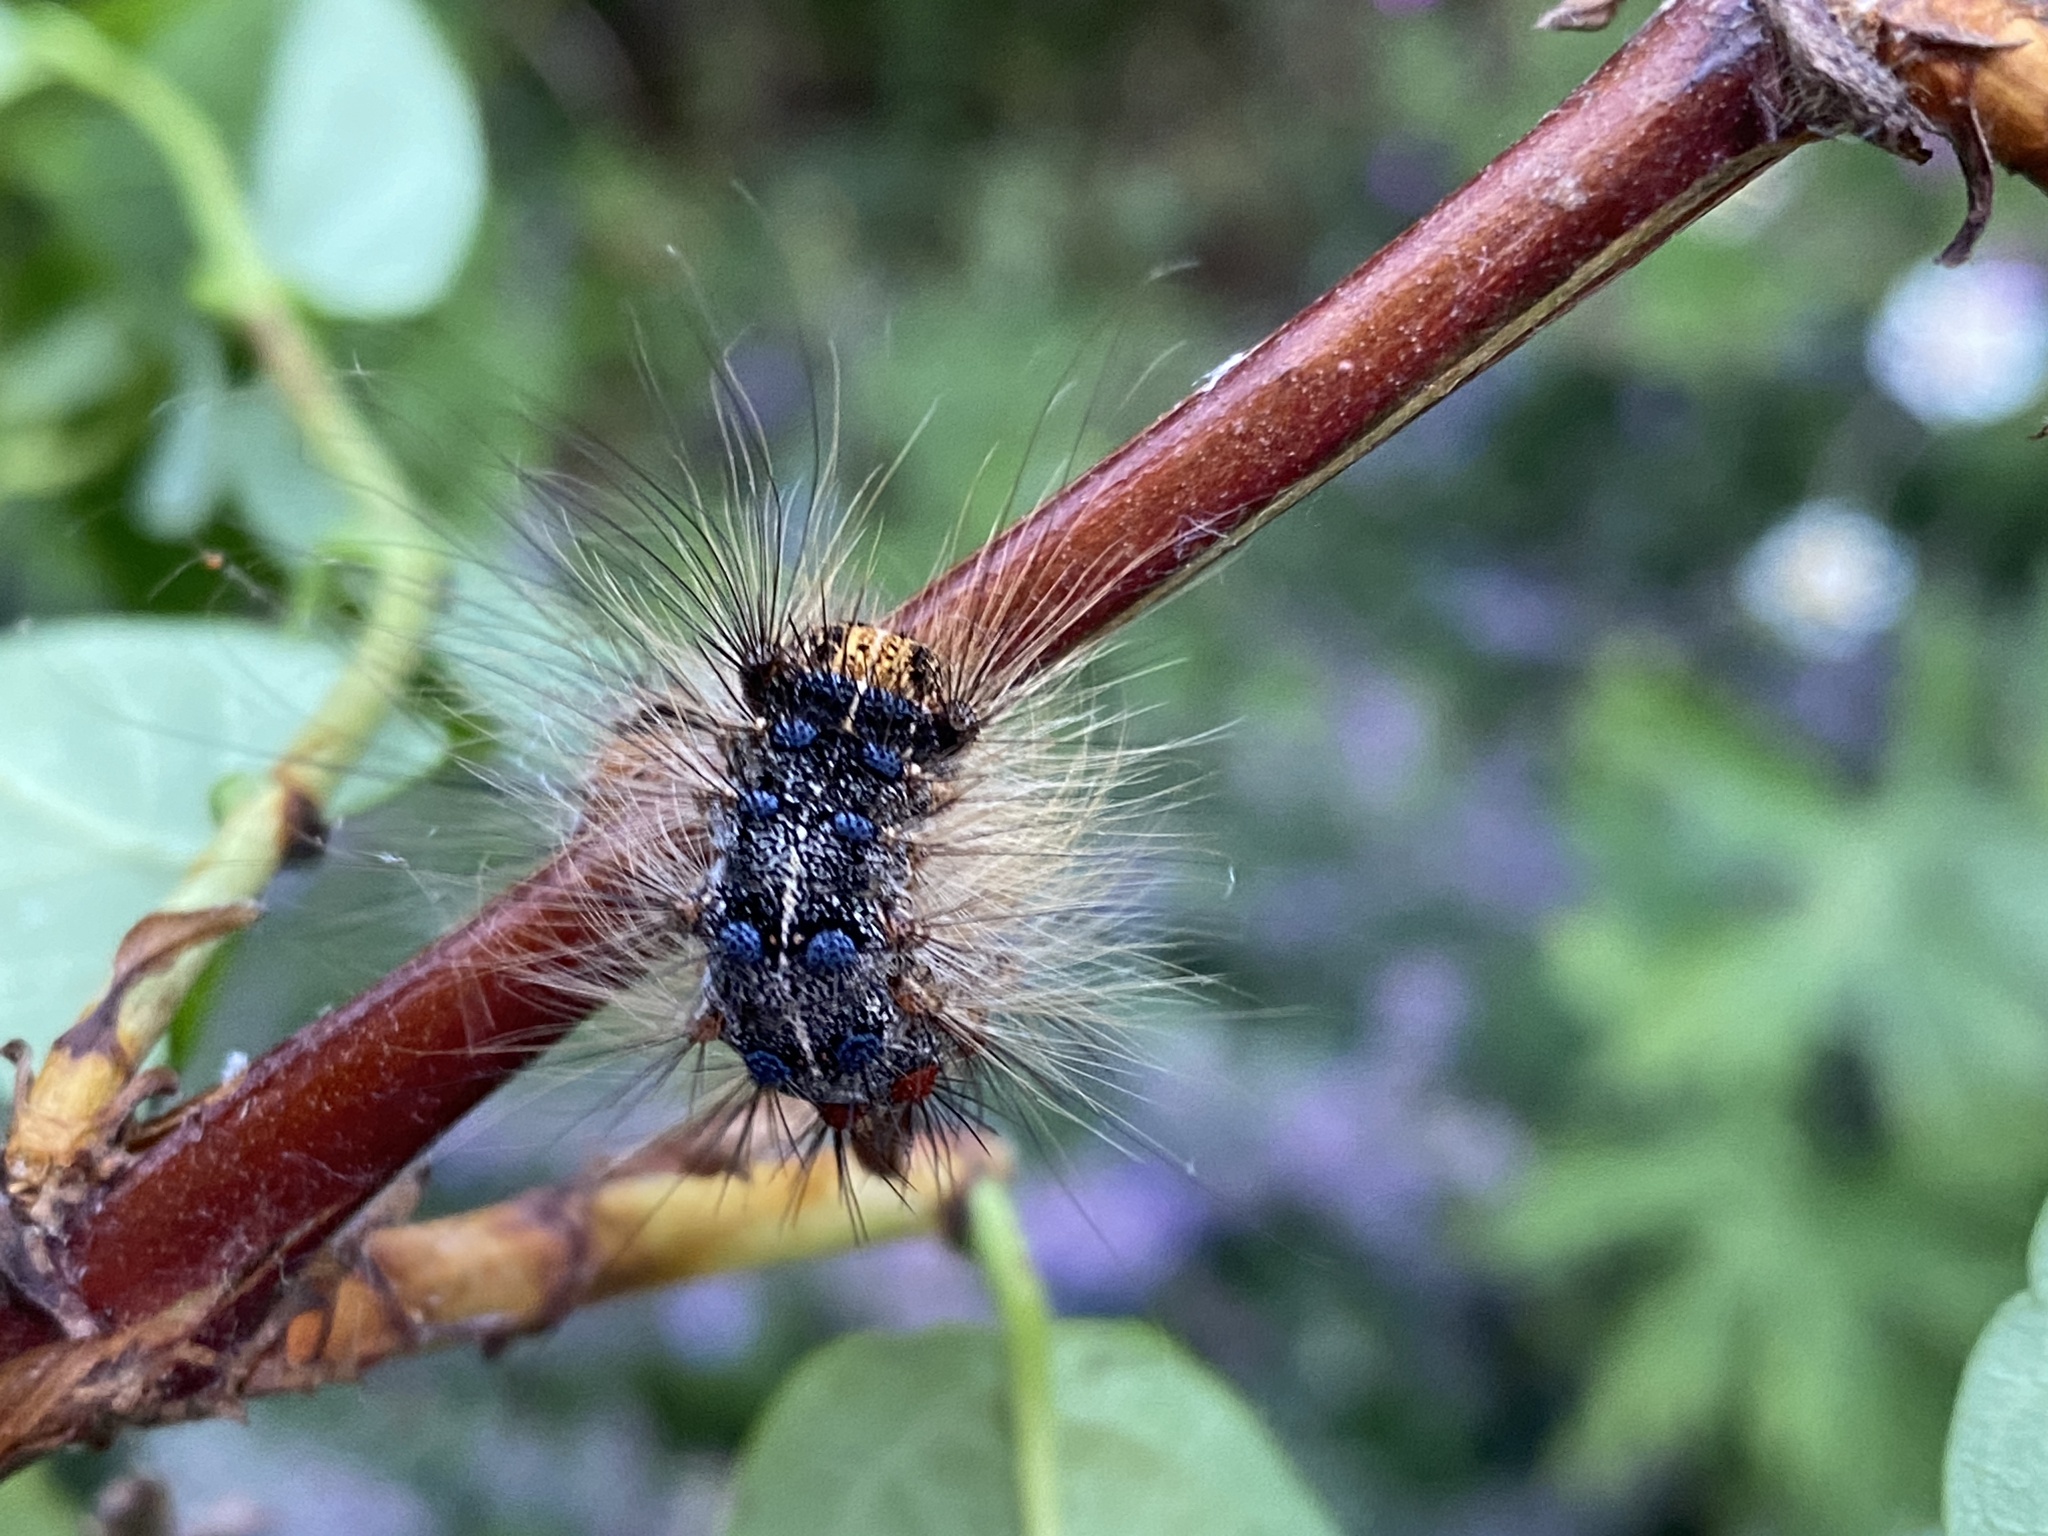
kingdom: Animalia
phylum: Arthropoda
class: Insecta
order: Lepidoptera
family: Erebidae
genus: Lymantria
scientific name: Lymantria dispar
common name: Gypsy moth
